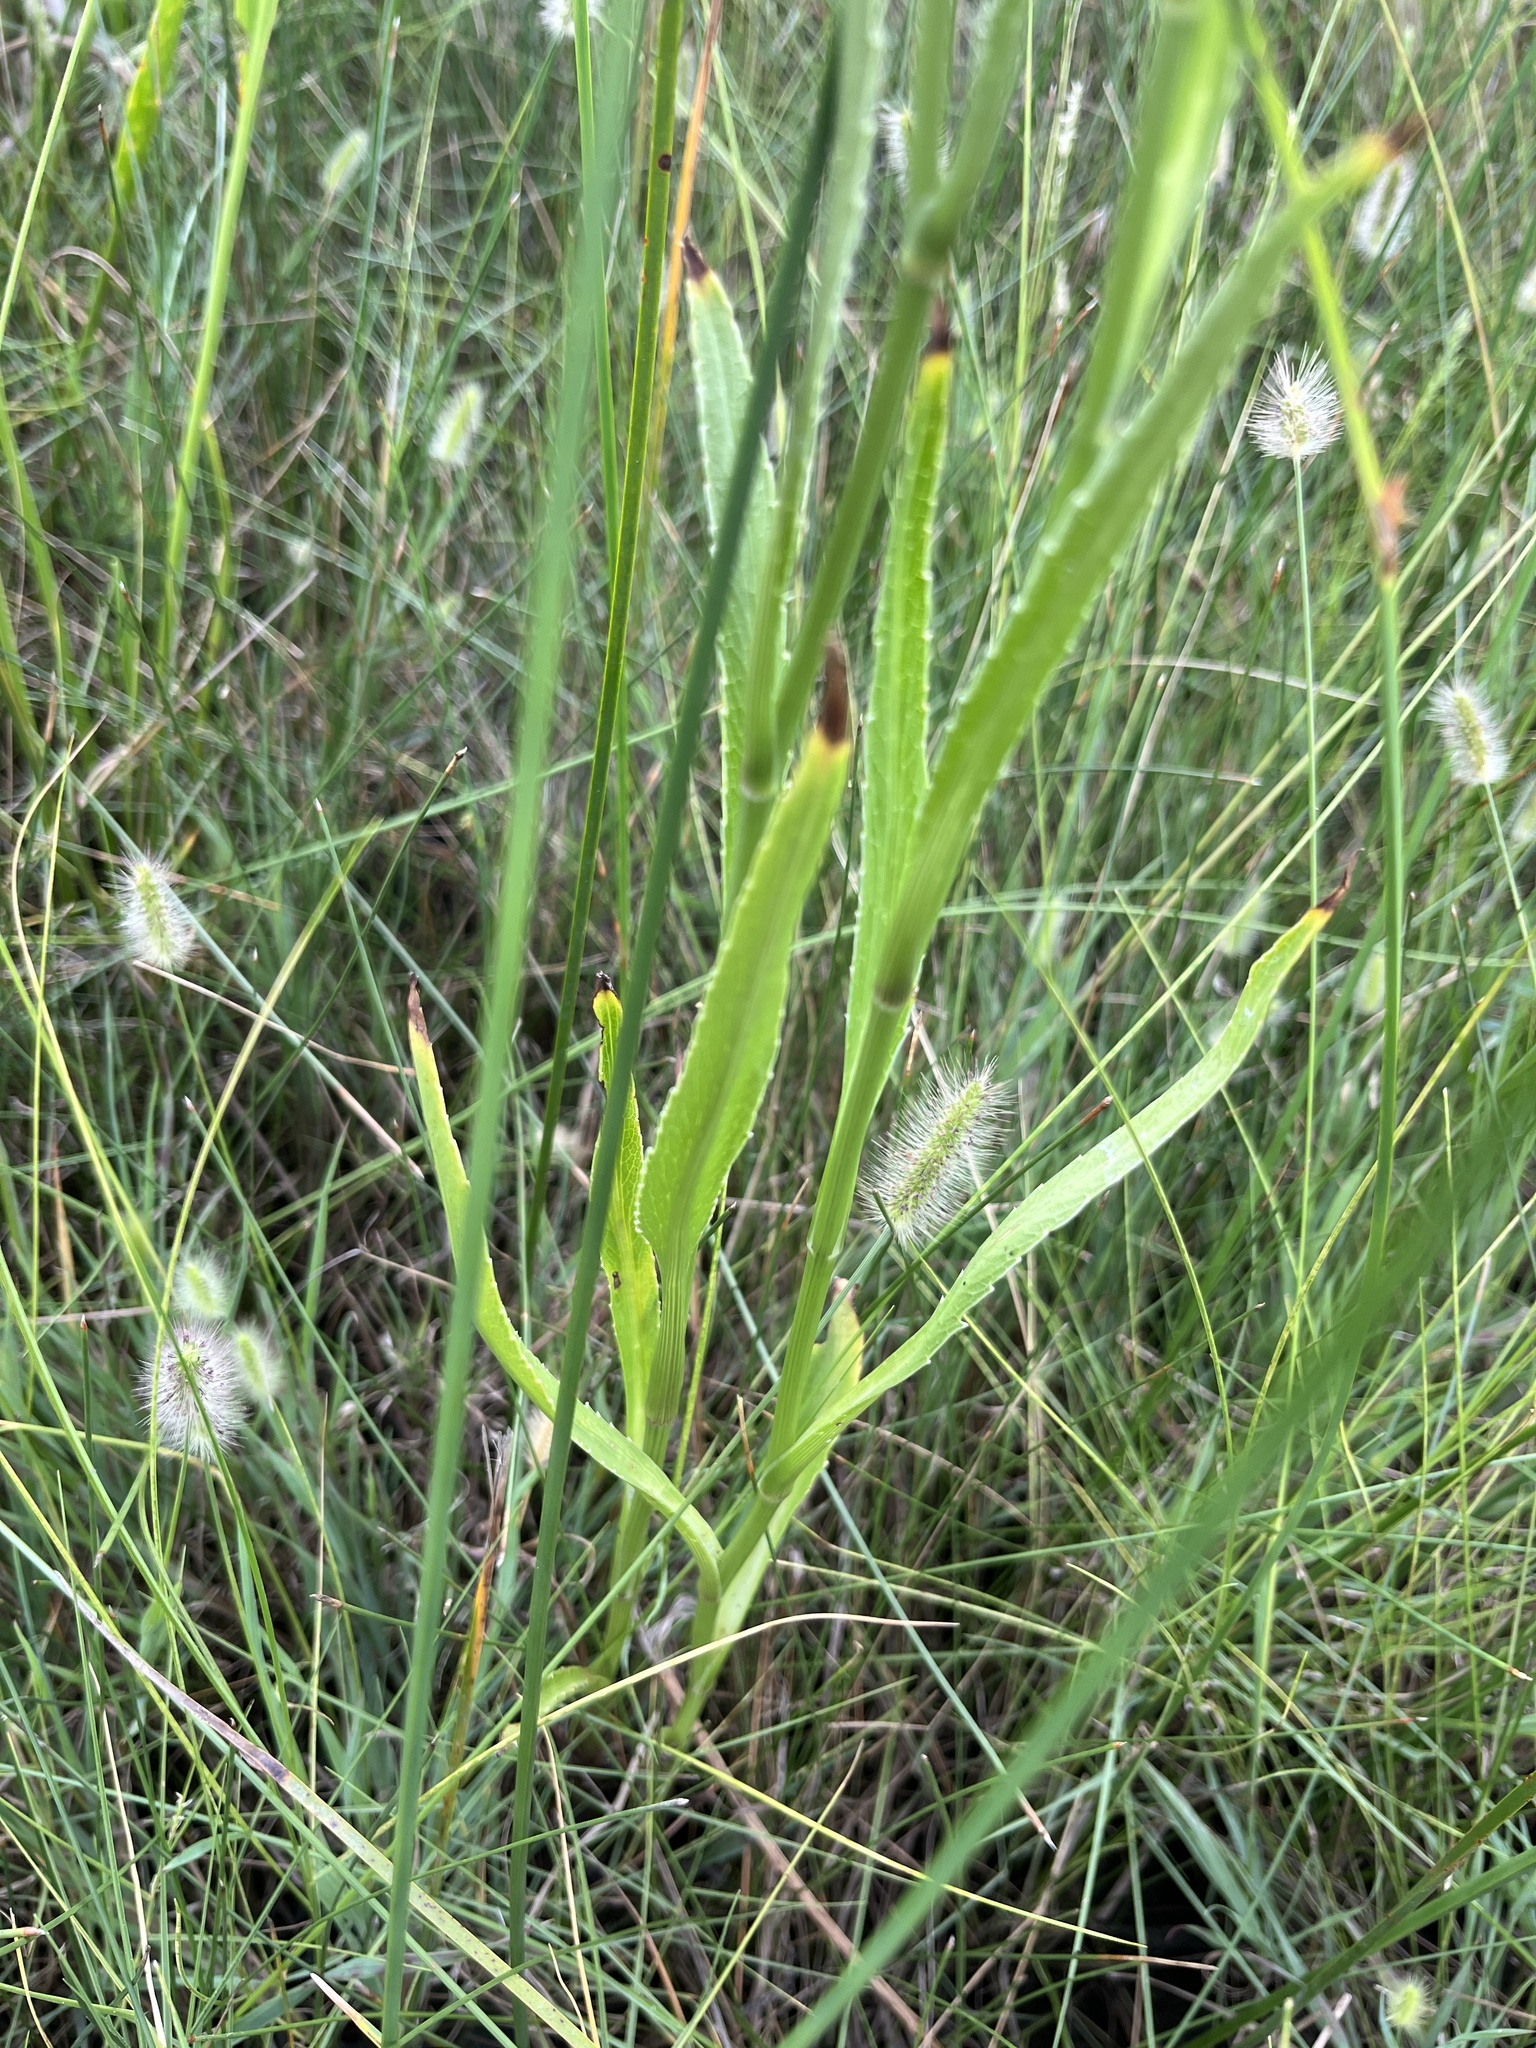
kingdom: Plantae
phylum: Tracheophyta
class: Magnoliopsida
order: Apiales
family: Apiaceae
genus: Eryngium
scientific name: Eryngium aquaticum
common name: Water eryngo
